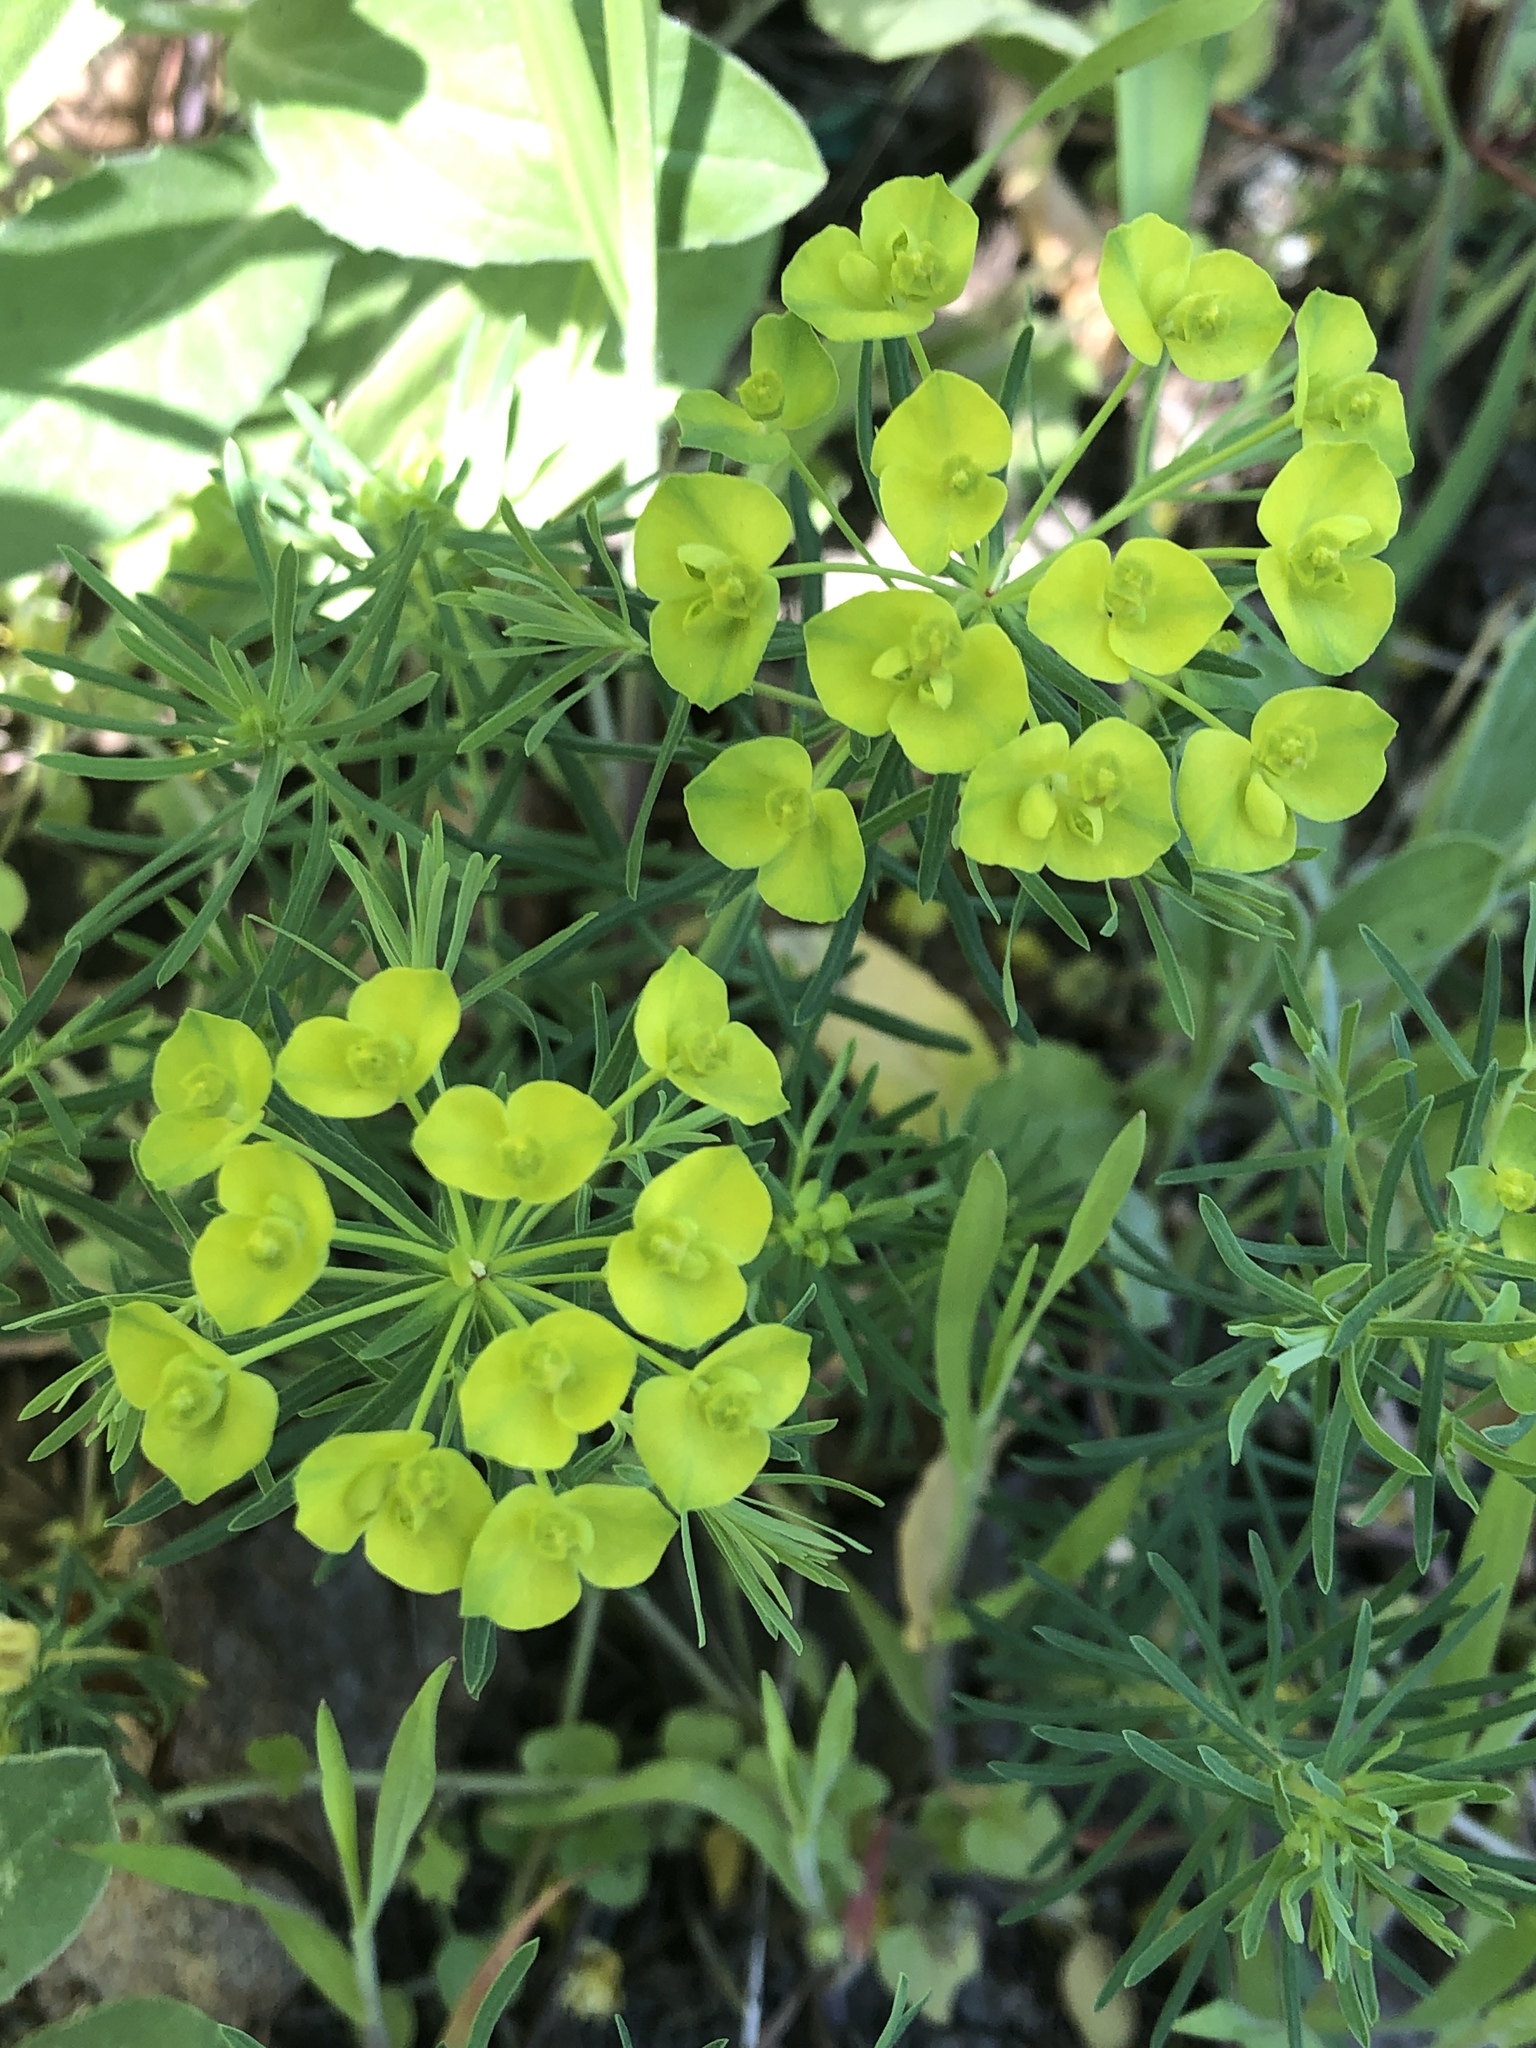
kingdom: Plantae
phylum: Tracheophyta
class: Magnoliopsida
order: Malpighiales
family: Euphorbiaceae
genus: Euphorbia
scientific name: Euphorbia cyparissias
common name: Cypress spurge
